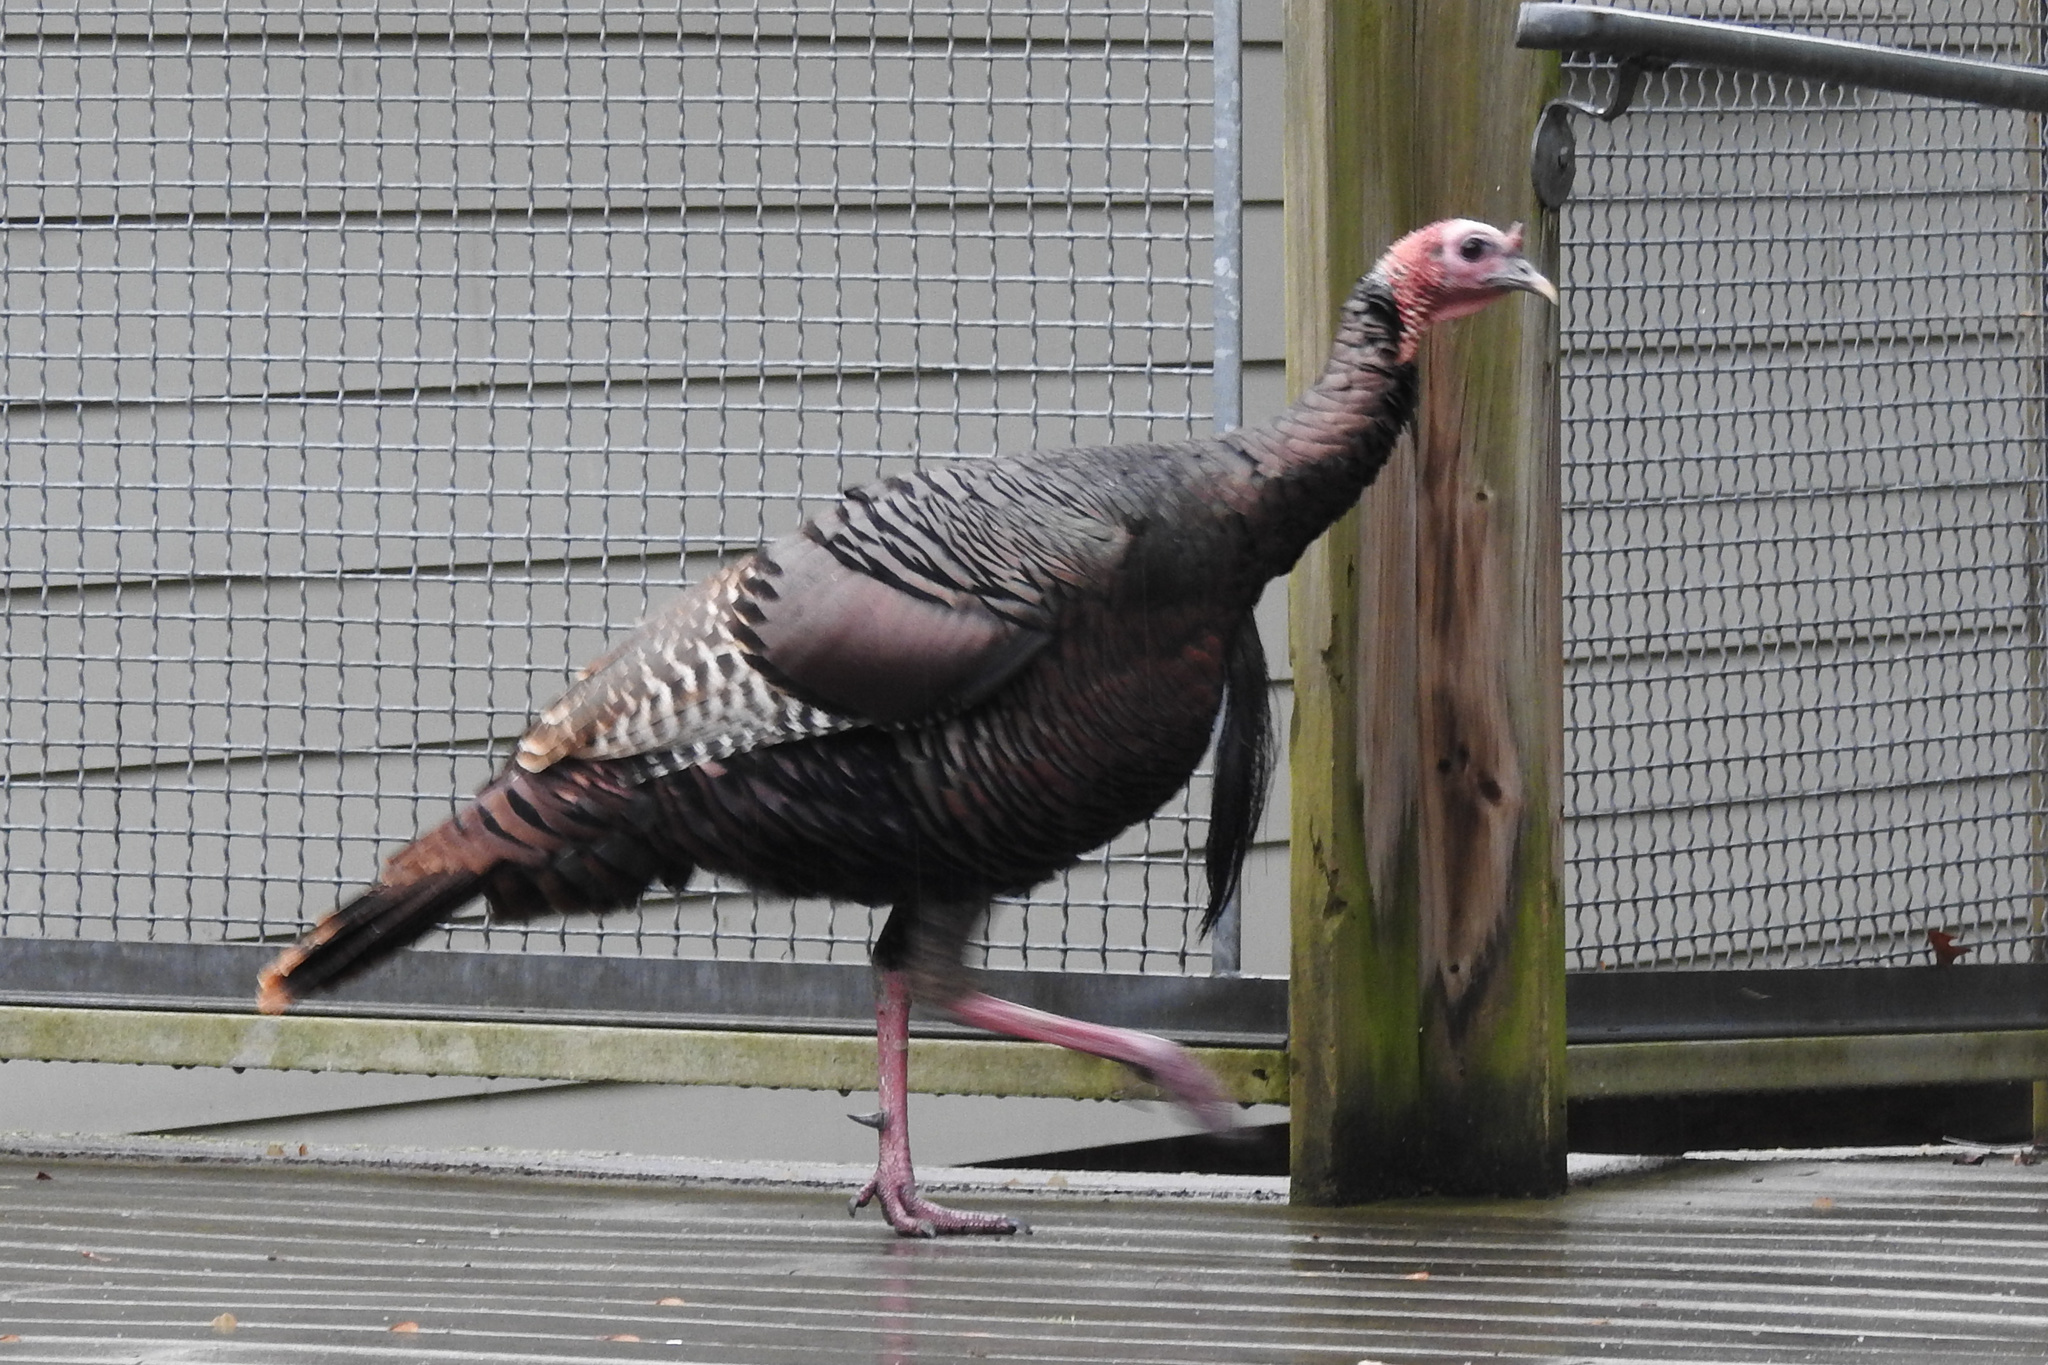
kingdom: Animalia
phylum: Chordata
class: Aves
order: Galliformes
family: Phasianidae
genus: Meleagris
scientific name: Meleagris gallopavo
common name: Wild turkey
